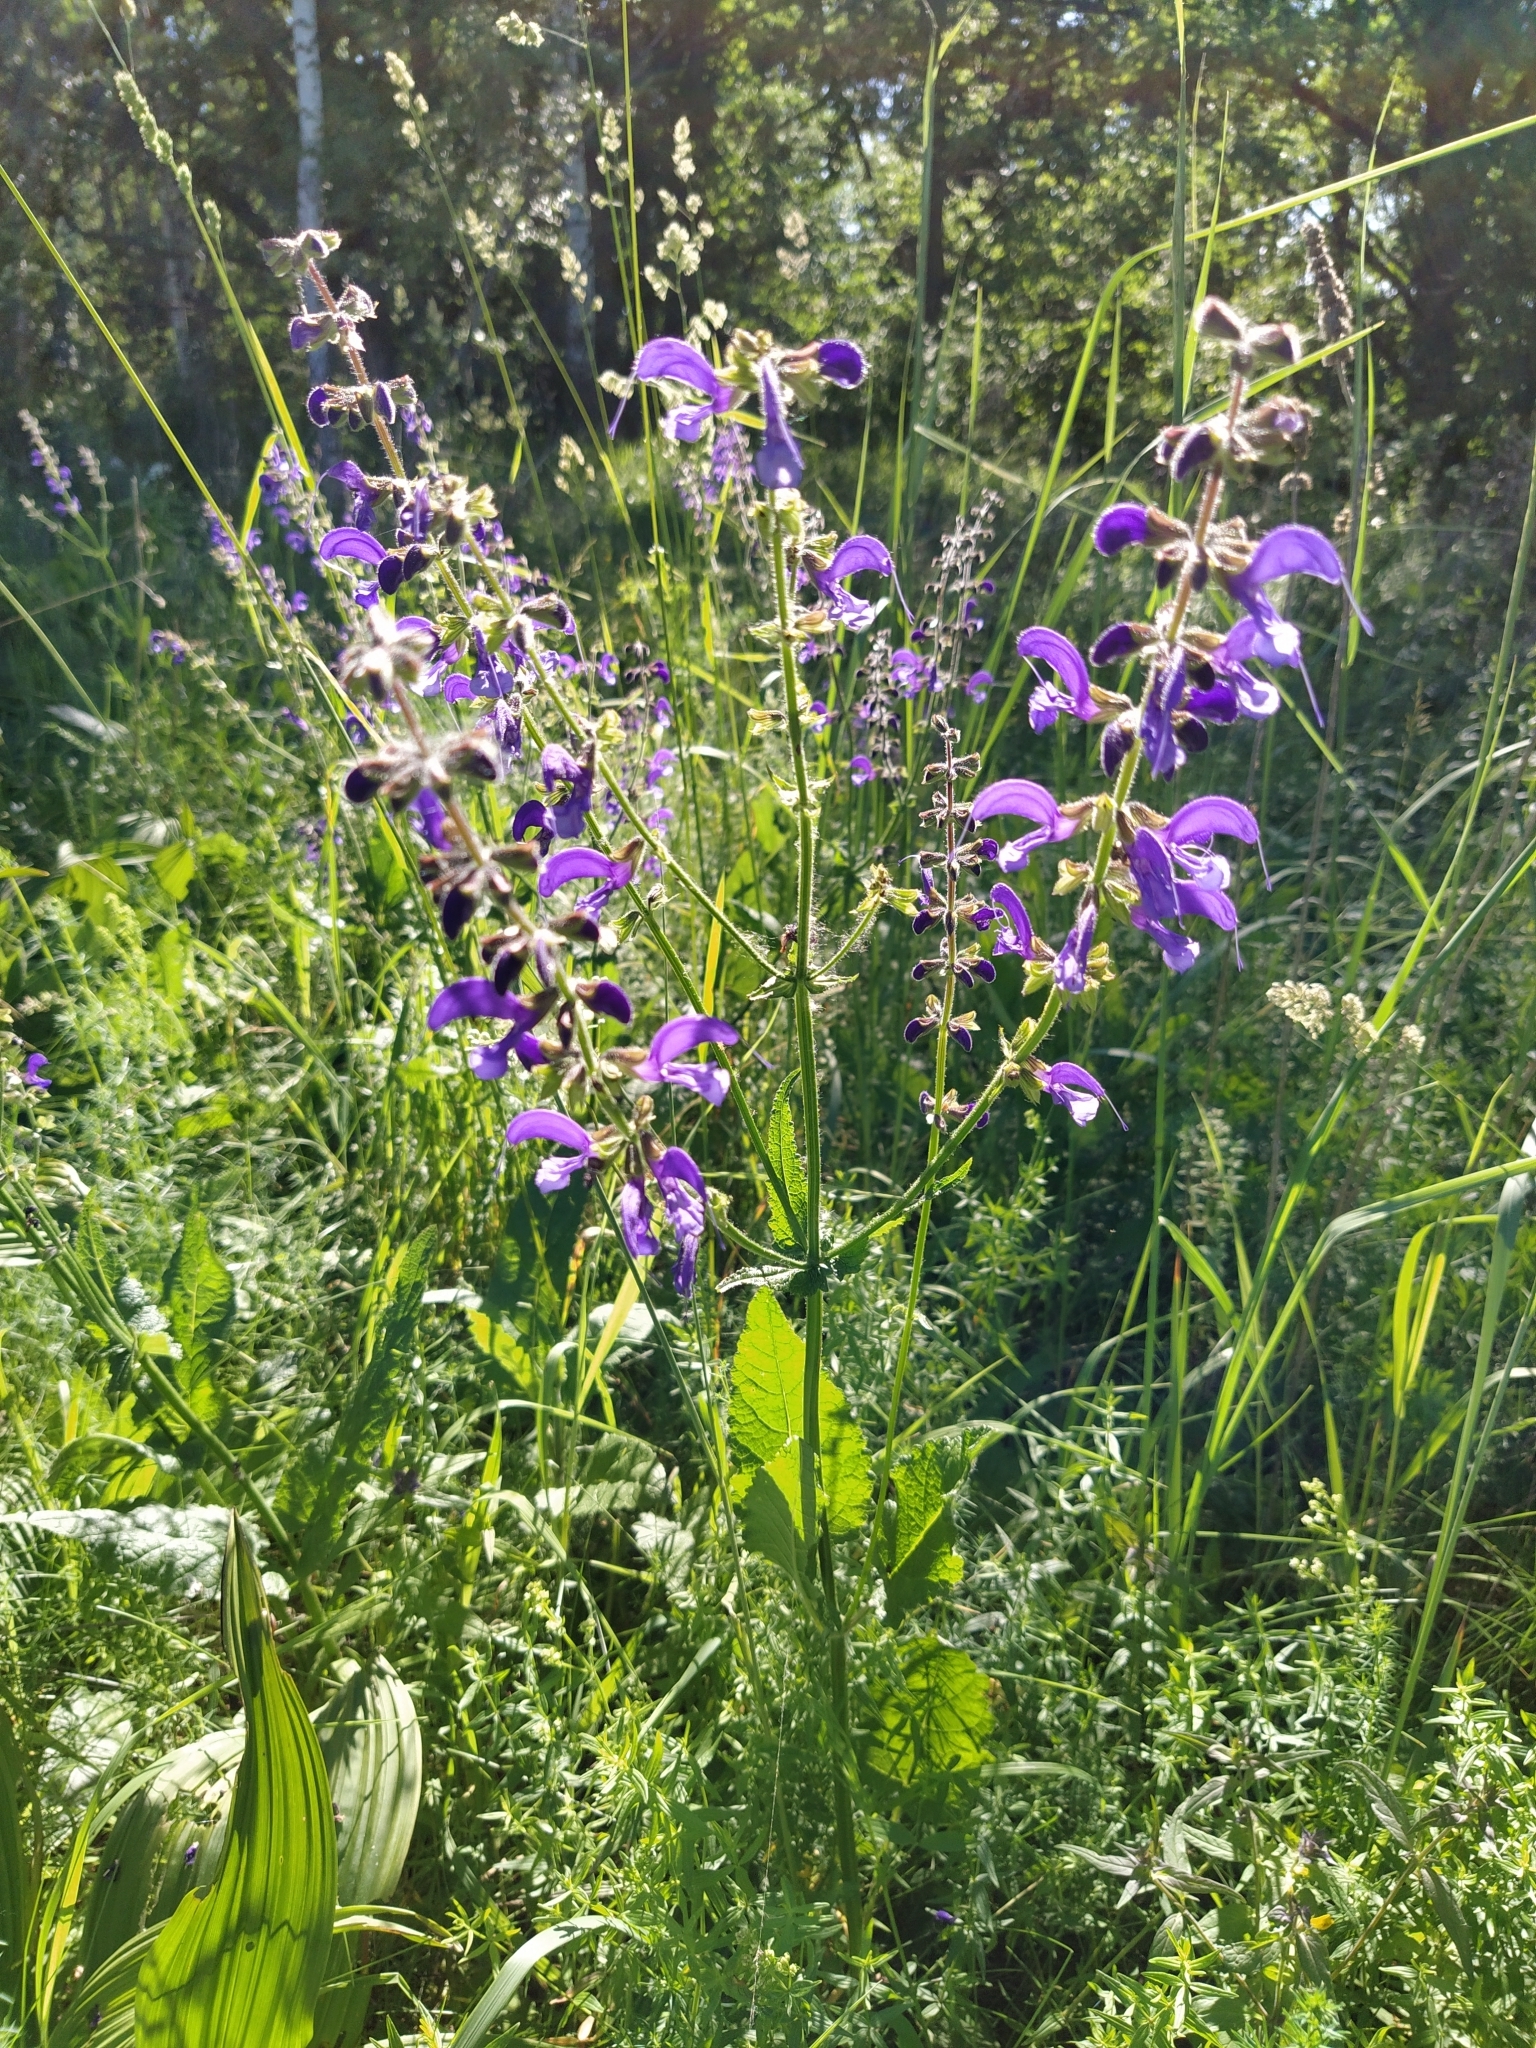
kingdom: Plantae
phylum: Tracheophyta
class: Magnoliopsida
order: Lamiales
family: Lamiaceae
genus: Salvia
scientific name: Salvia pratensis
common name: Meadow sage
